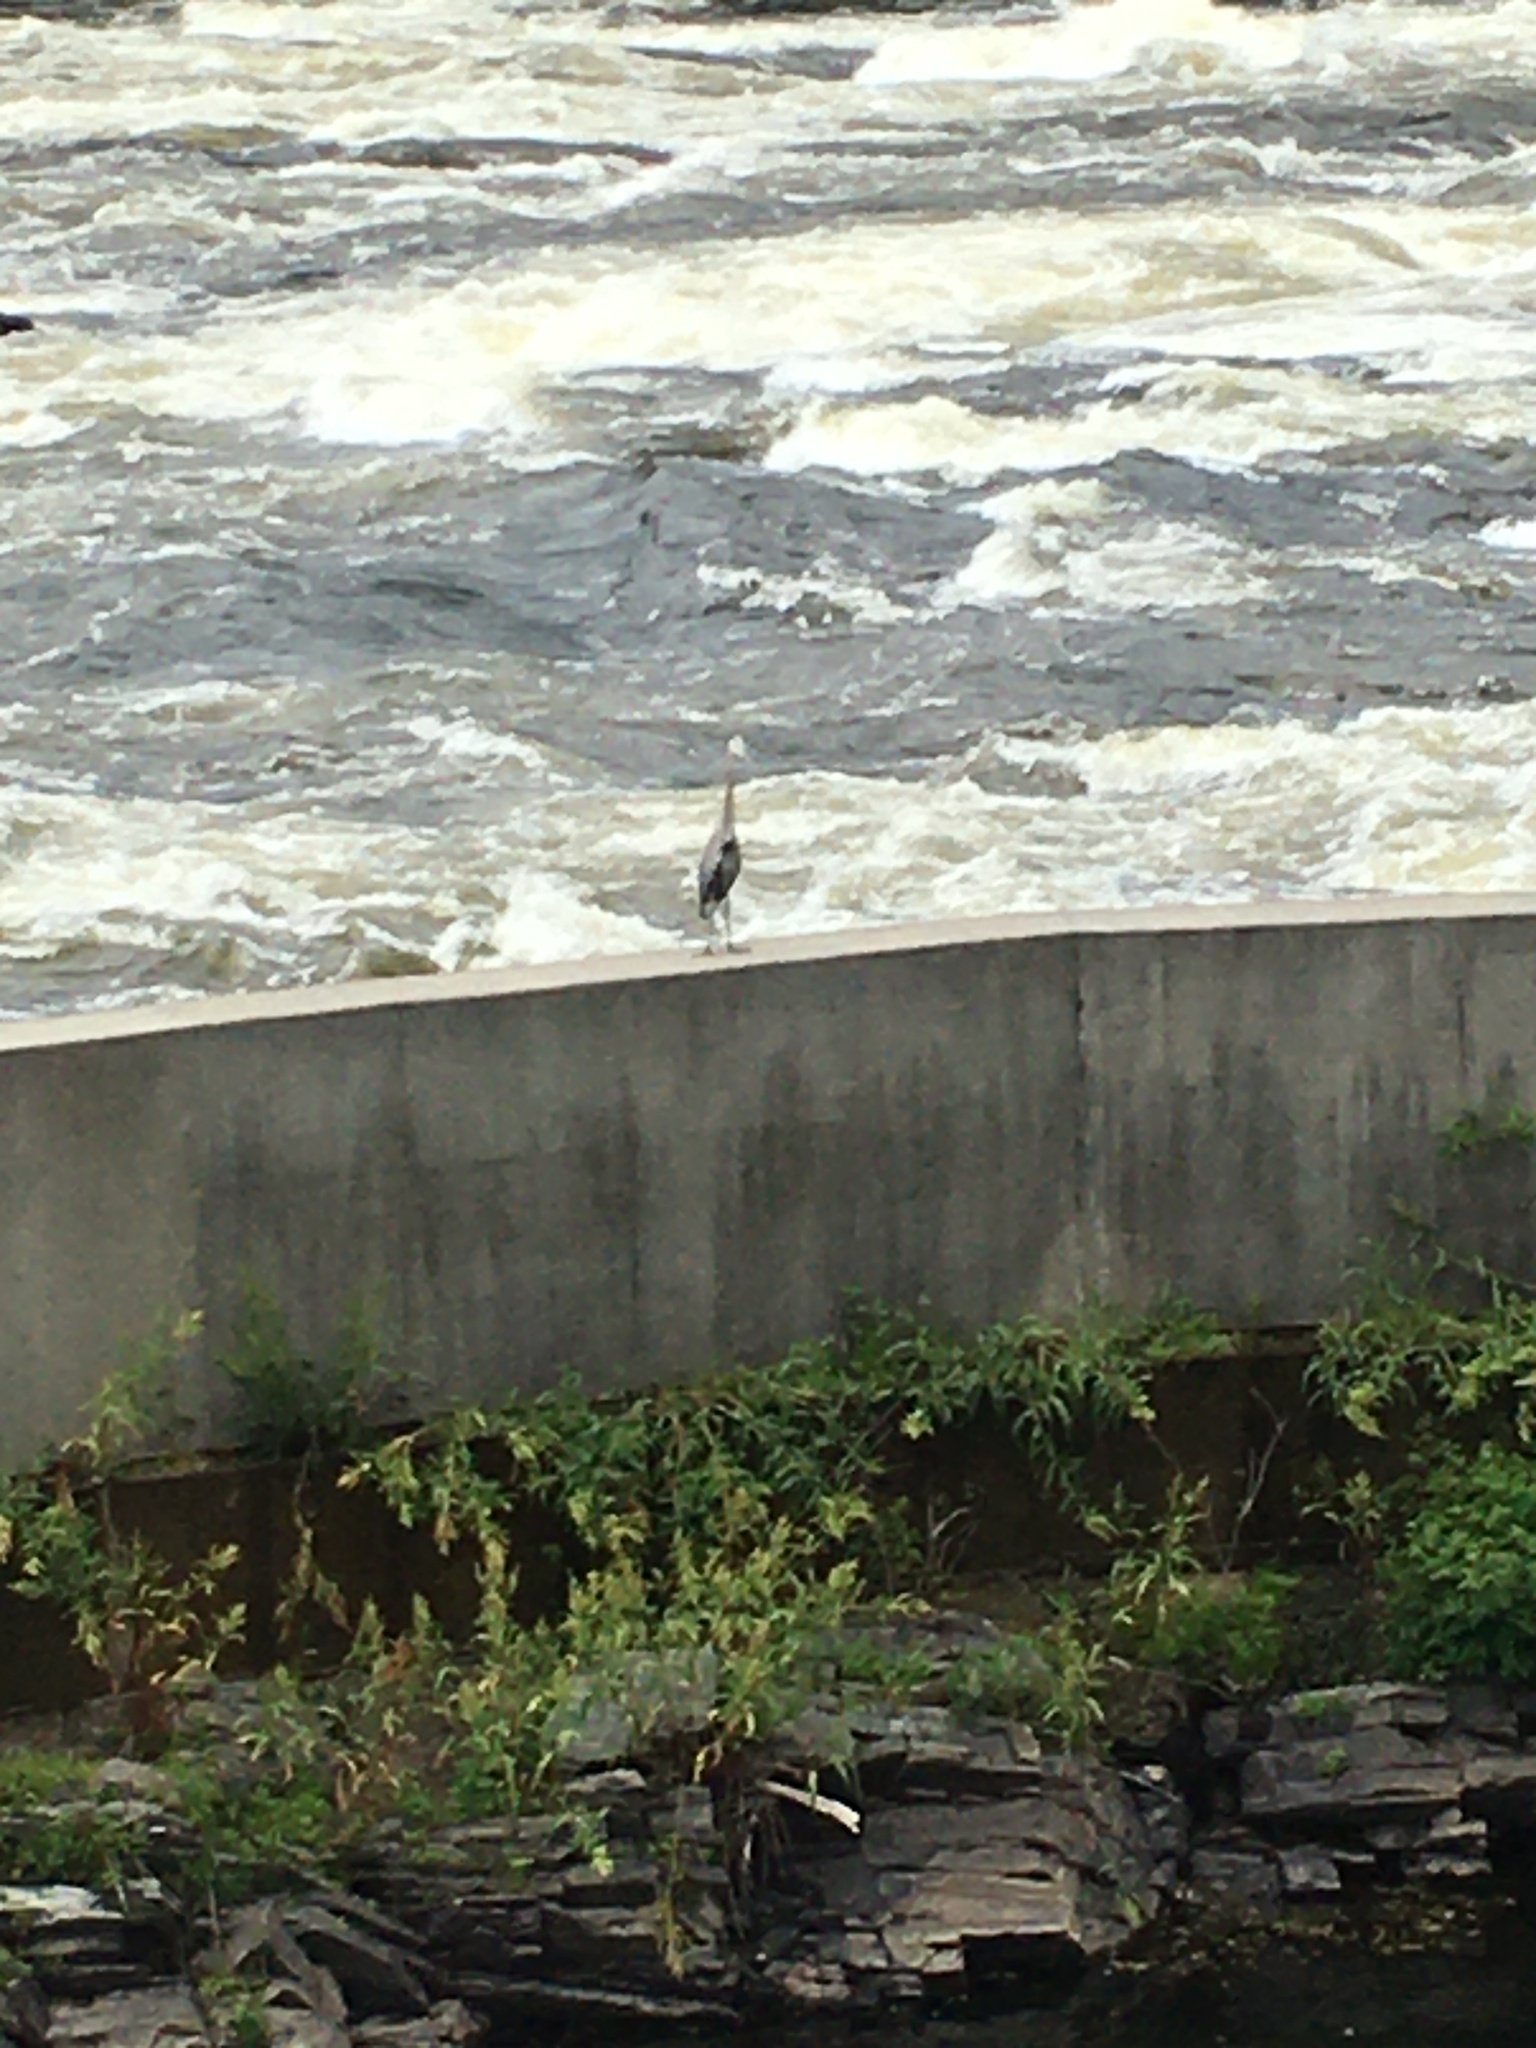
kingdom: Animalia
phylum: Chordata
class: Aves
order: Pelecaniformes
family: Ardeidae
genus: Ardea
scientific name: Ardea herodias
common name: Great blue heron
